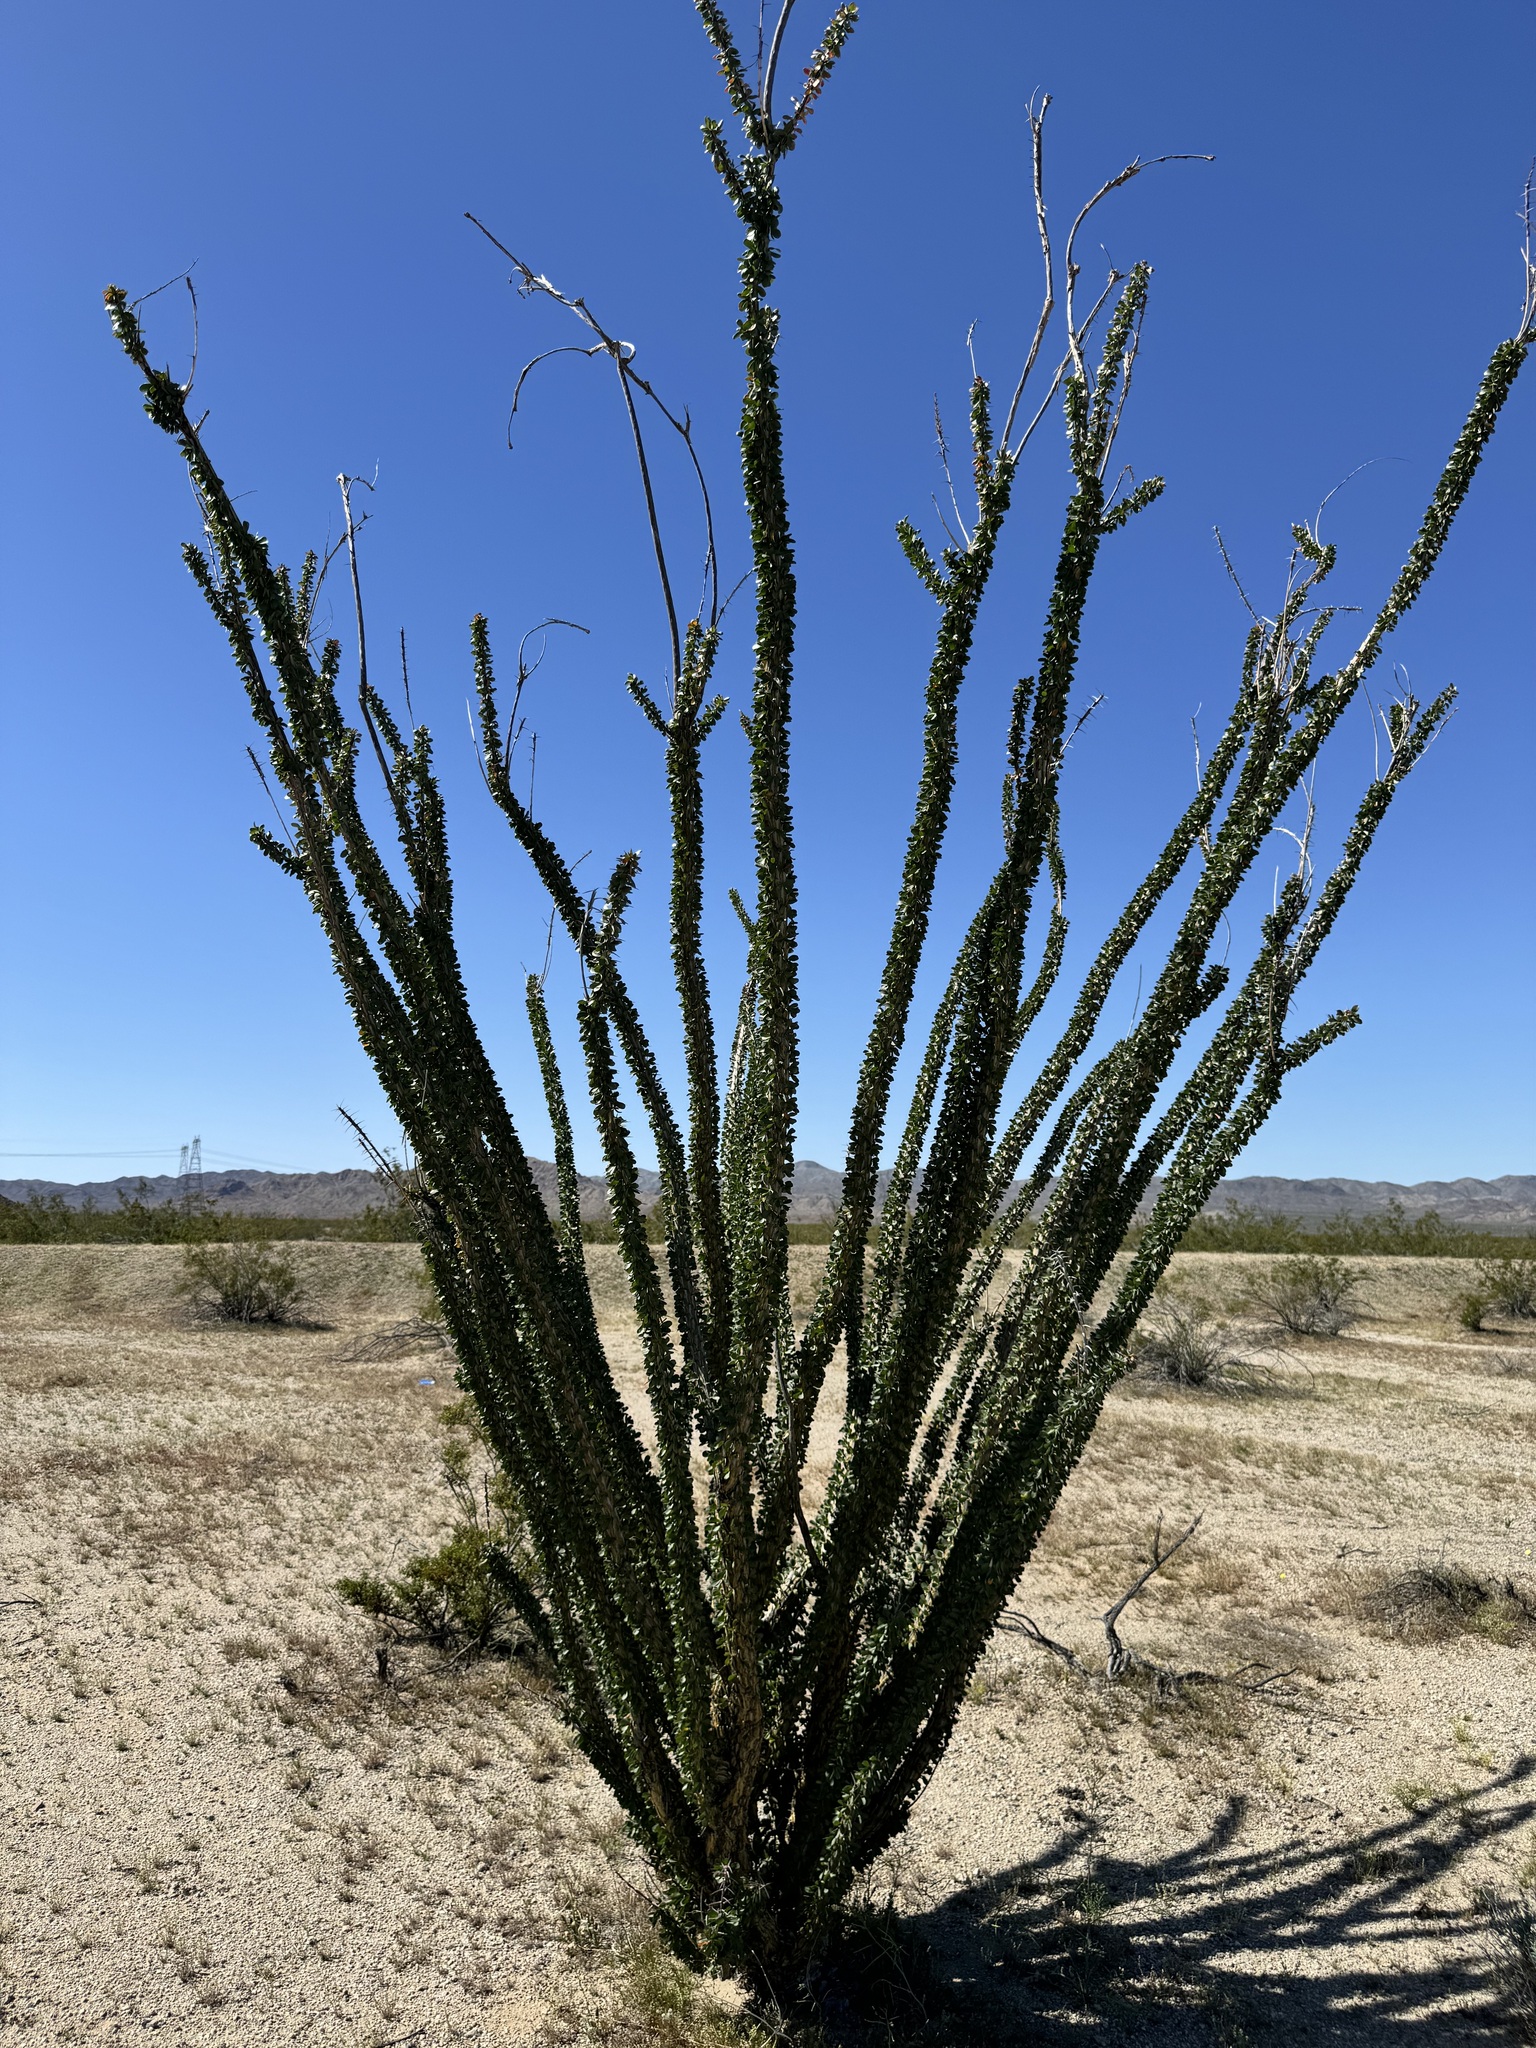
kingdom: Plantae
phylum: Tracheophyta
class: Magnoliopsida
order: Ericales
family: Fouquieriaceae
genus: Fouquieria
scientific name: Fouquieria splendens
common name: Vine-cactus
